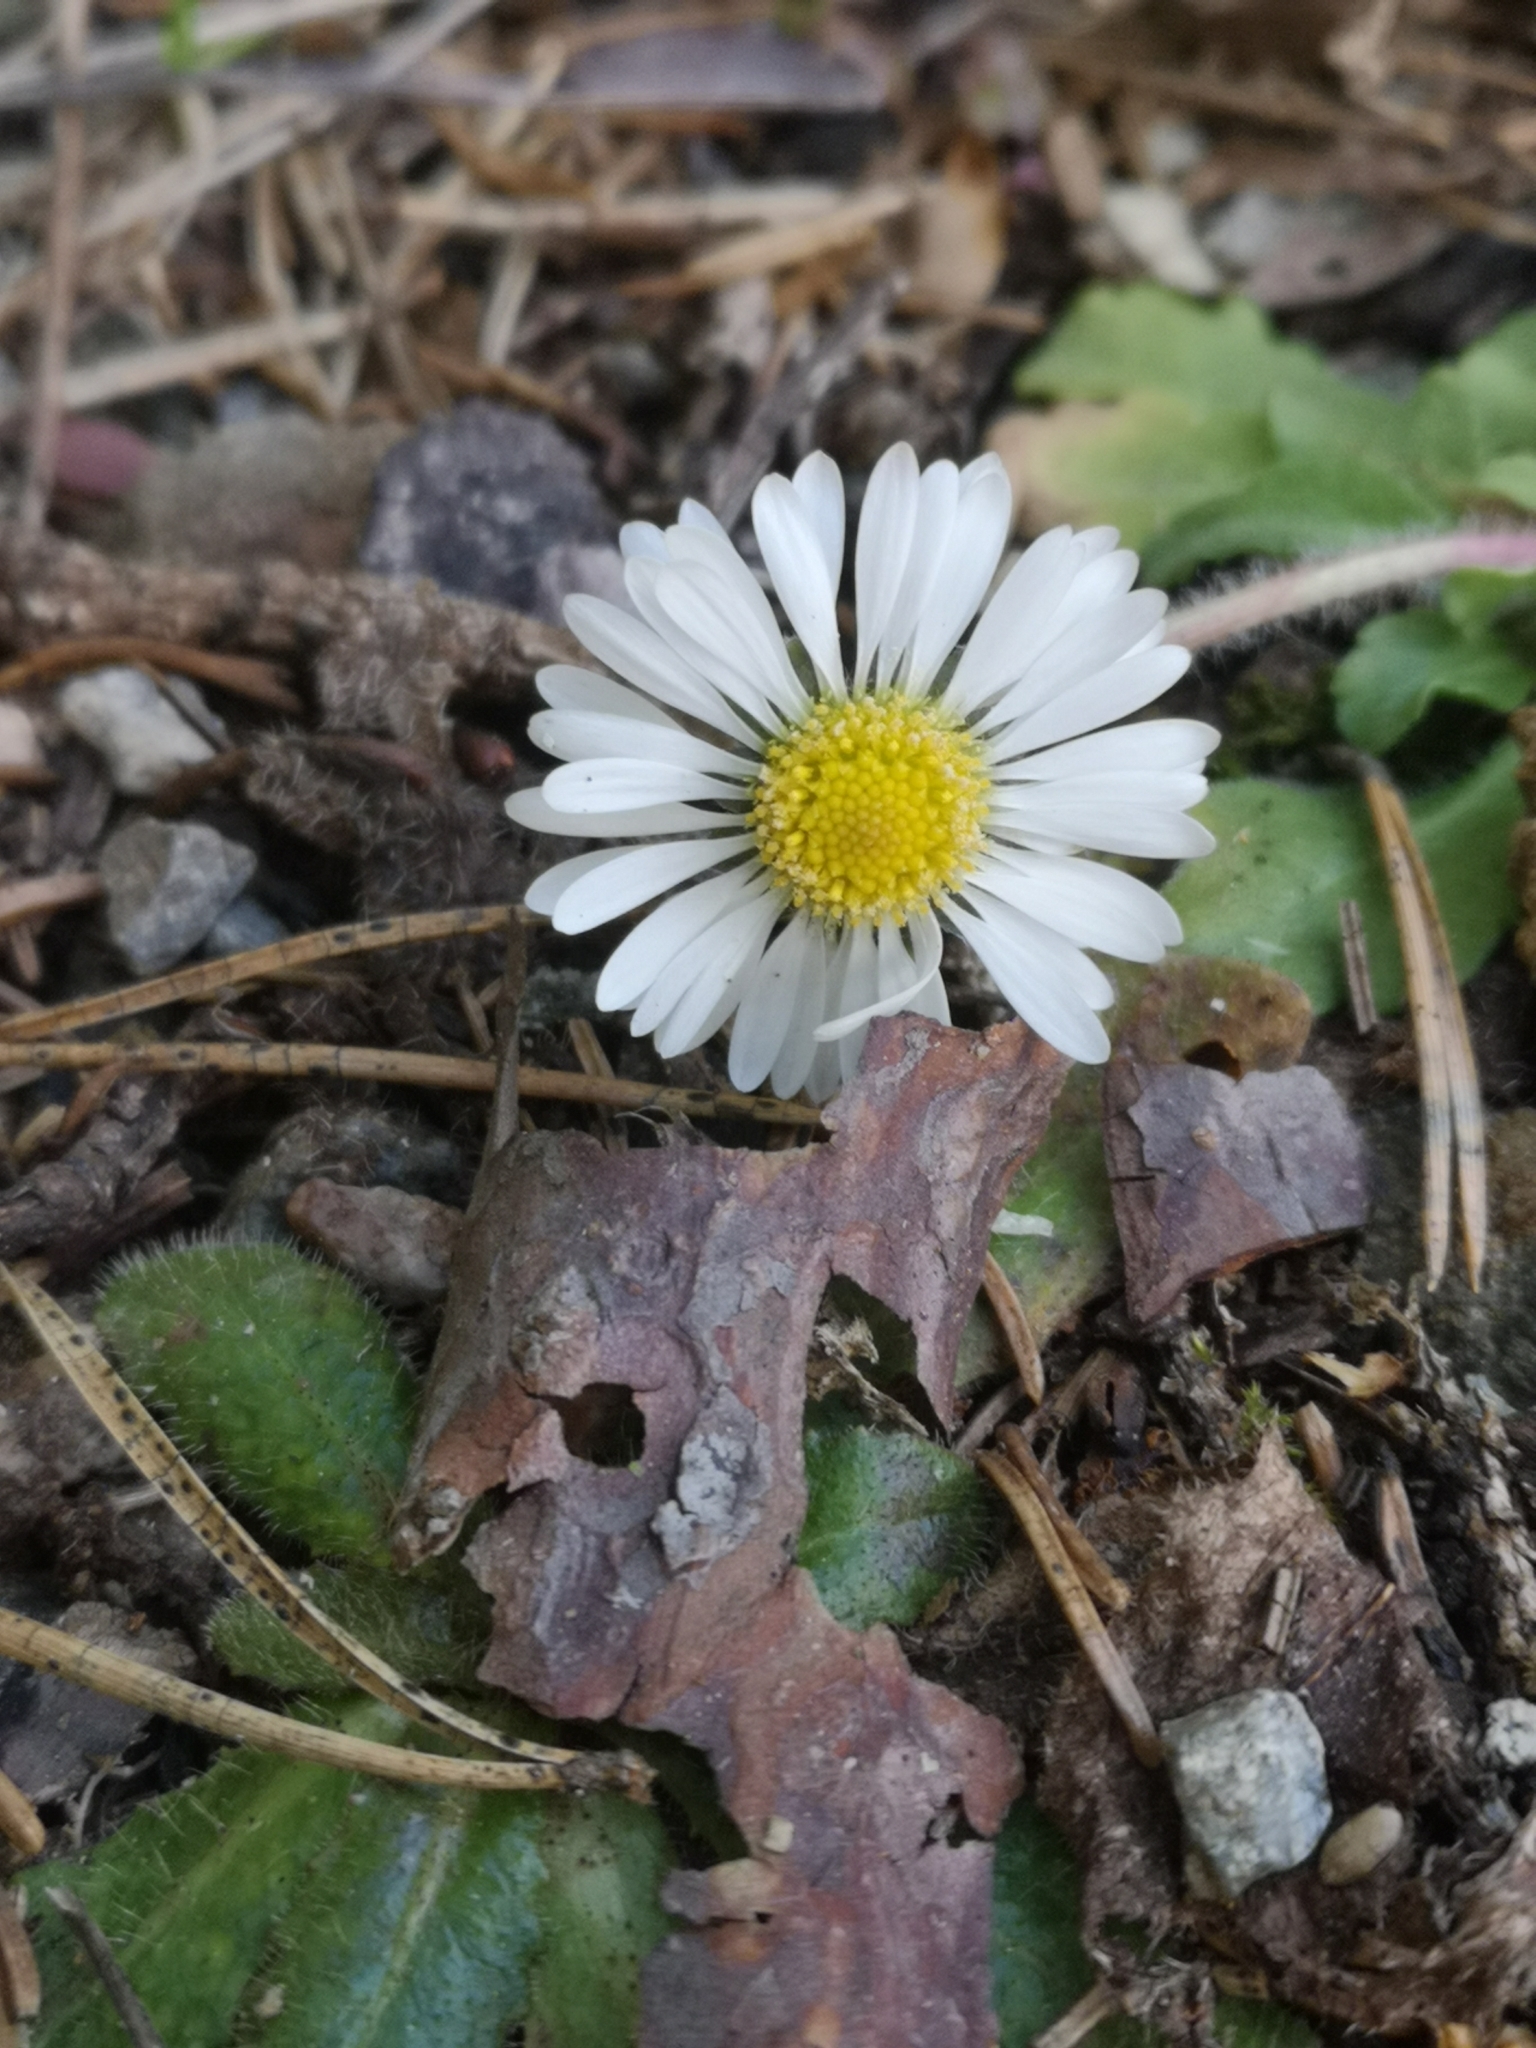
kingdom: Plantae
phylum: Tracheophyta
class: Magnoliopsida
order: Asterales
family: Asteraceae
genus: Bellis
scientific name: Bellis perennis
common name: Lawndaisy
